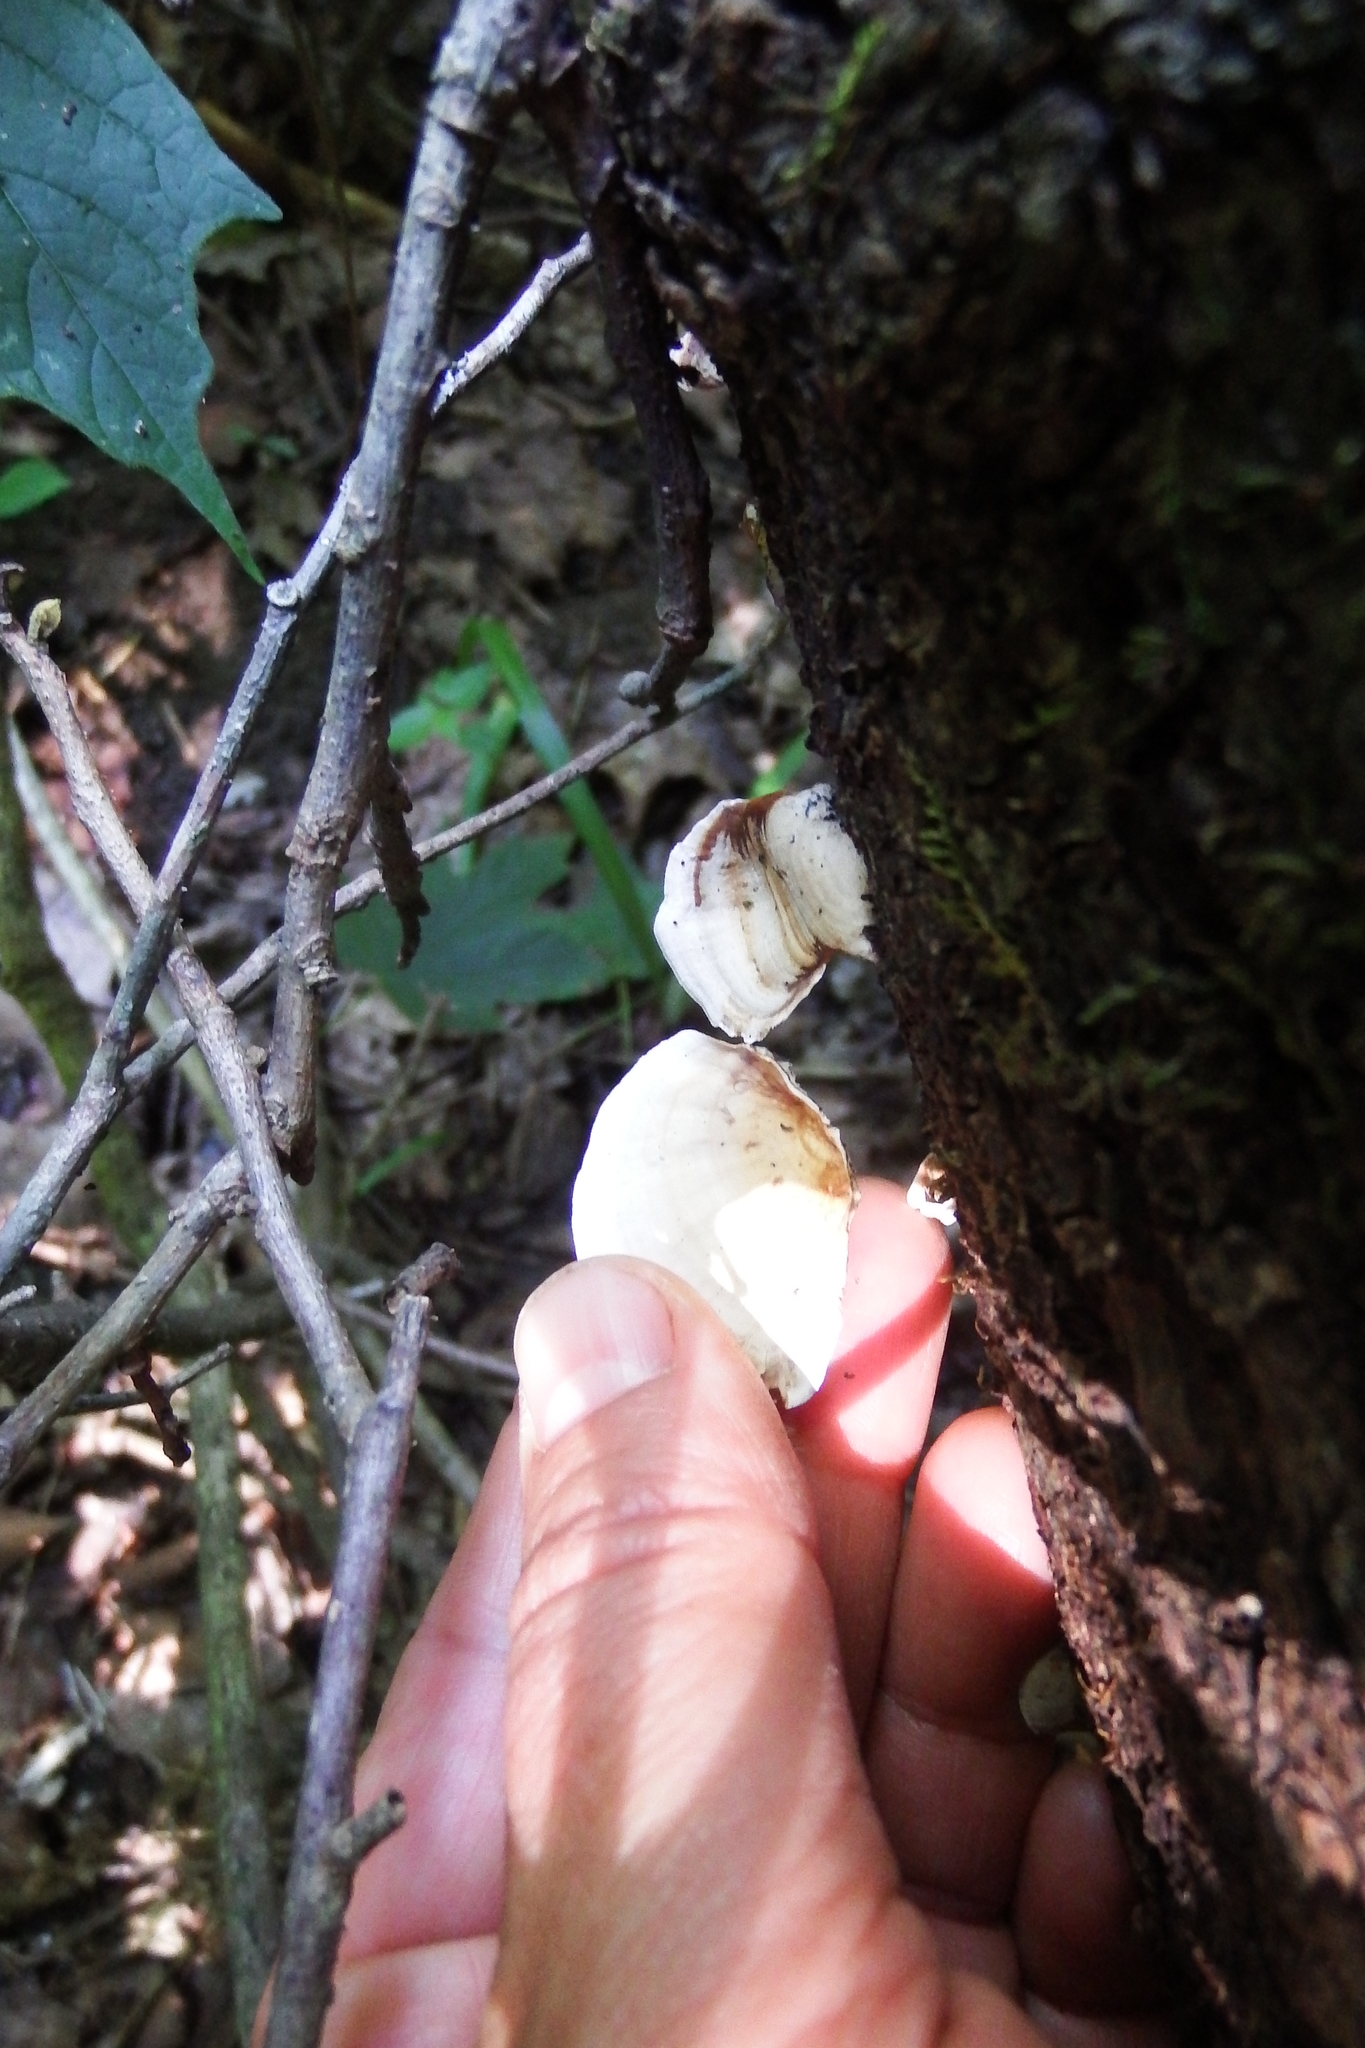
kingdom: Fungi
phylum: Basidiomycota
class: Agaricomycetes
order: Russulales
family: Stereaceae
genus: Stereum
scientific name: Stereum ostrea
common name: False turkeytail
